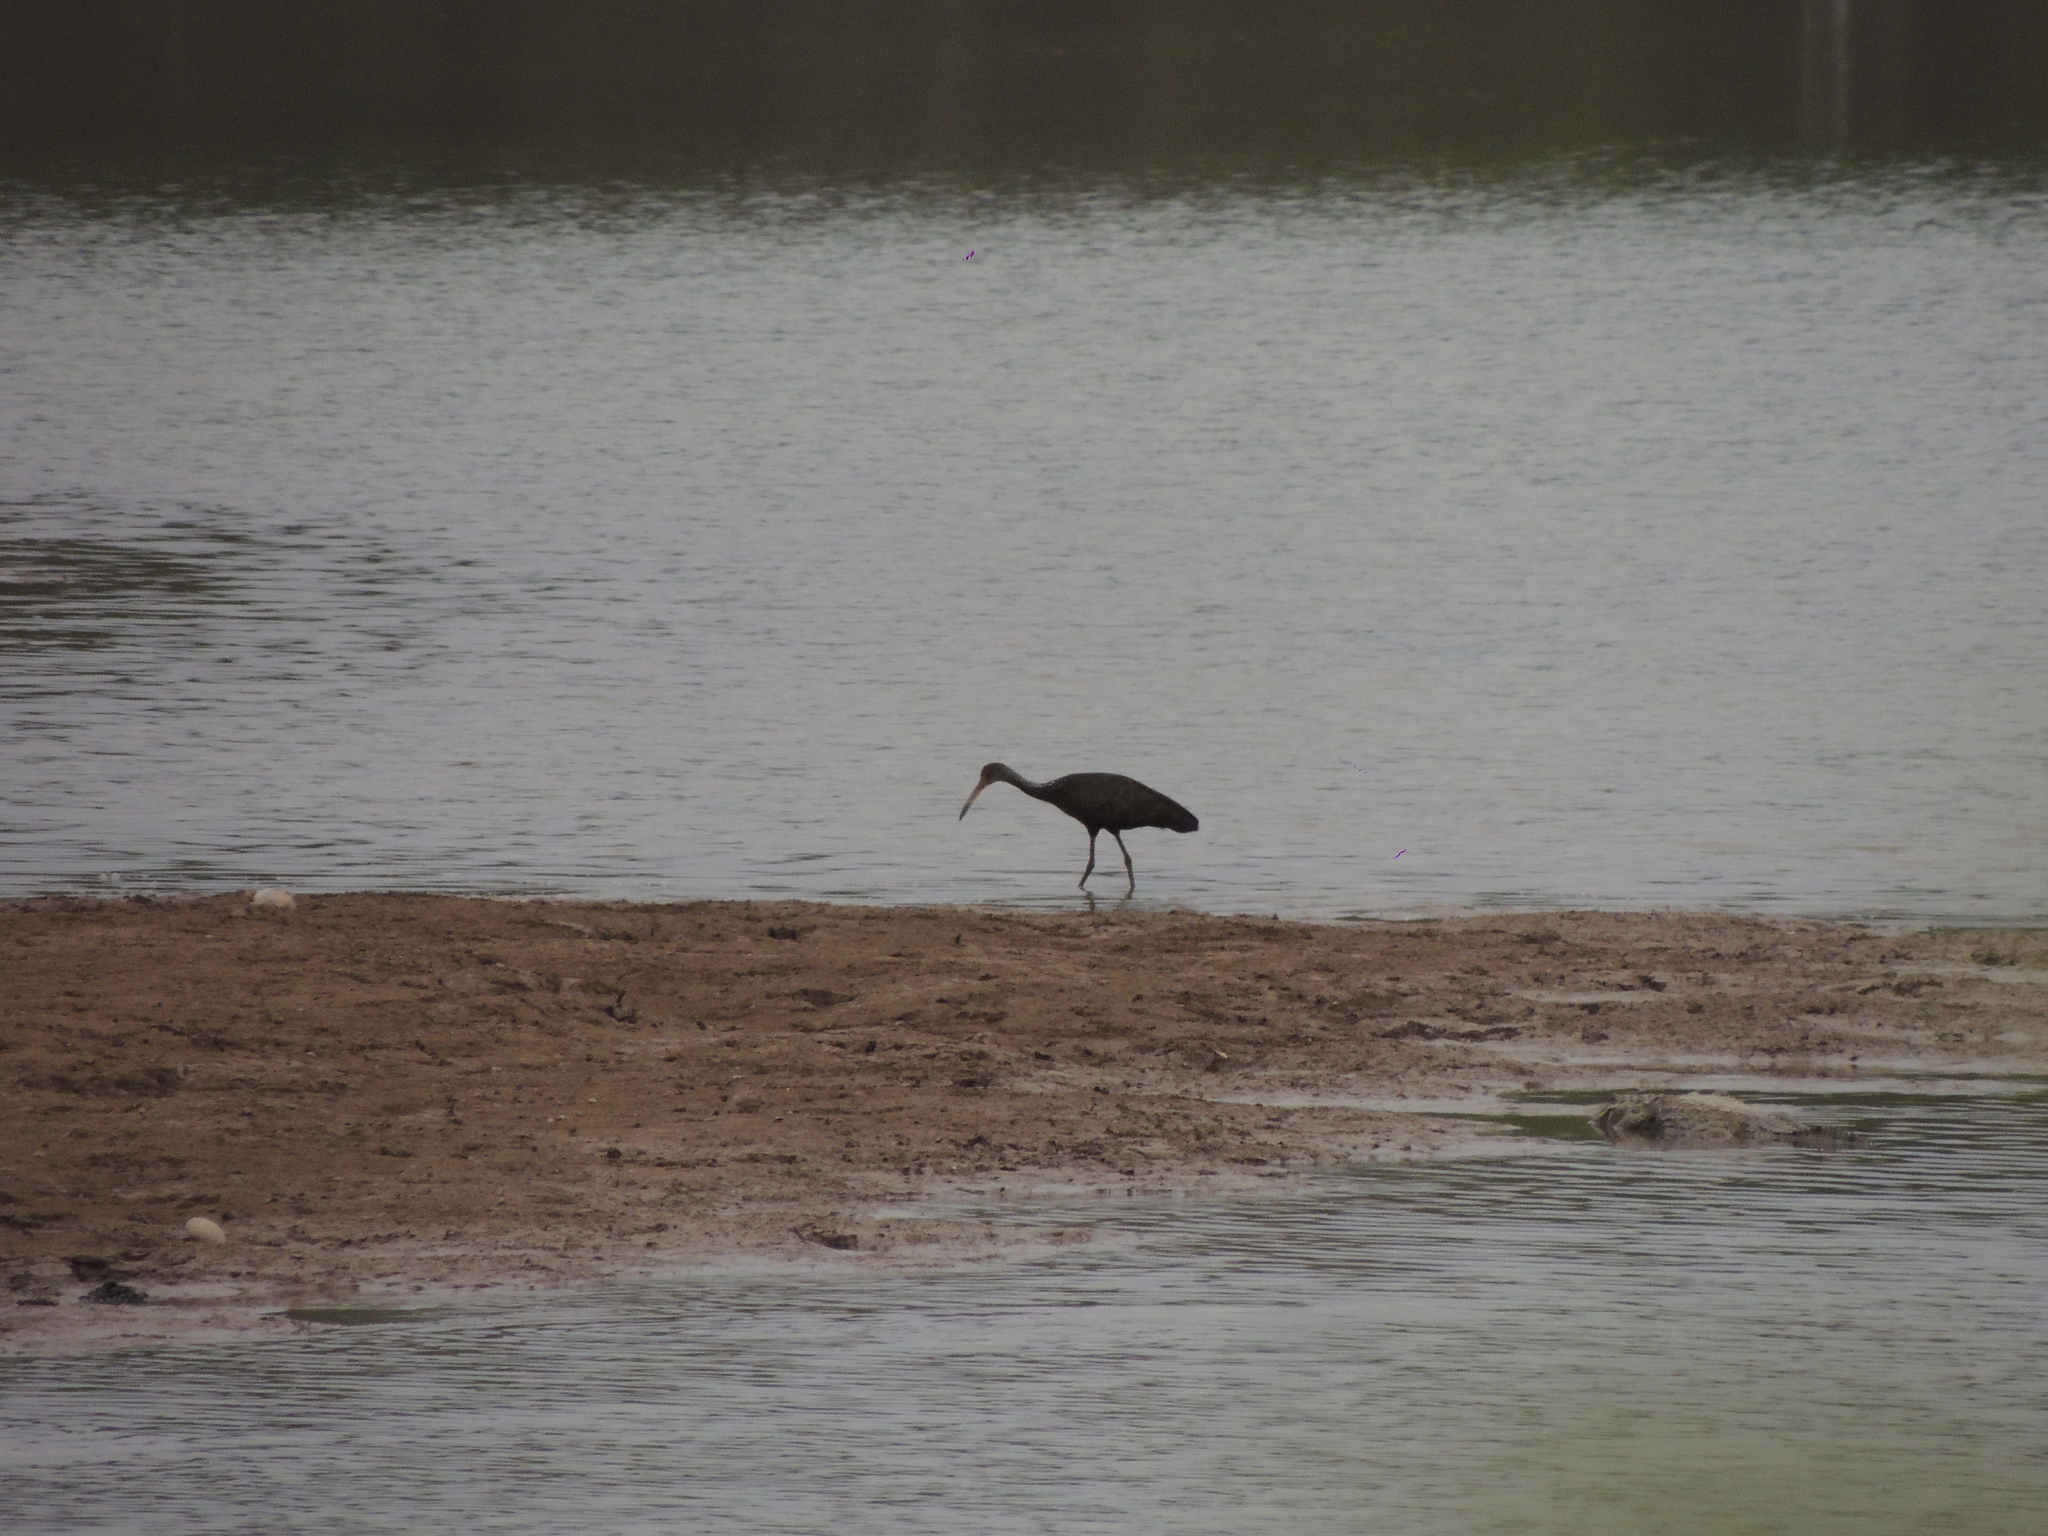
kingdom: Animalia
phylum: Chordata
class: Aves
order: Gruiformes
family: Aramidae
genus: Aramus
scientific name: Aramus guarauna
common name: Limpkin
